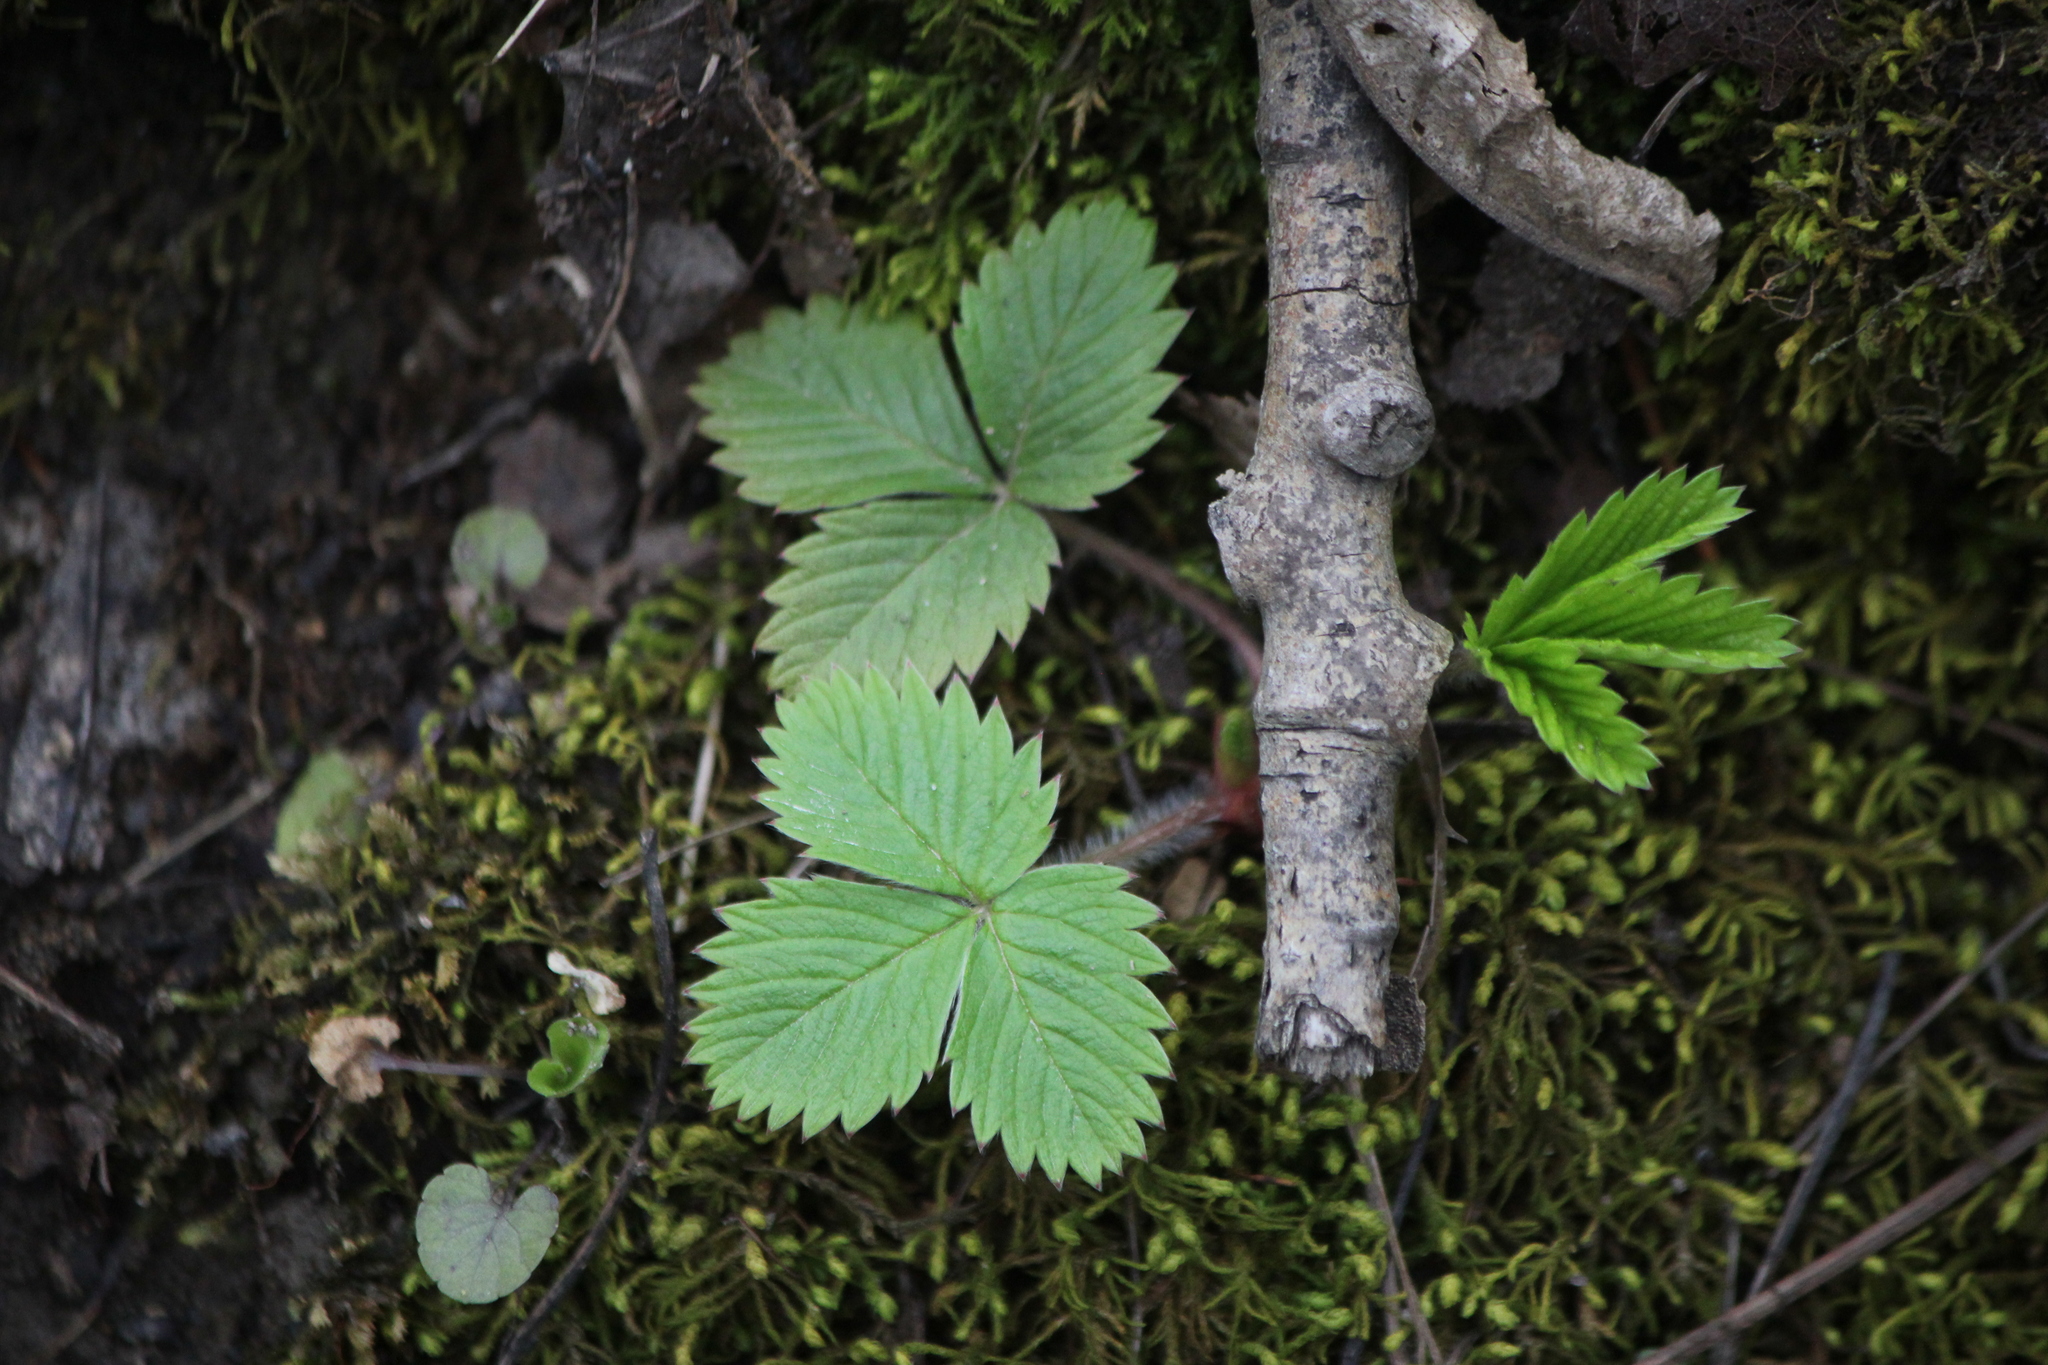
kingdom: Plantae
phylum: Tracheophyta
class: Magnoliopsida
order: Rosales
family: Rosaceae
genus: Fragaria
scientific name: Fragaria virginiana
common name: Thickleaved wild strawberry
